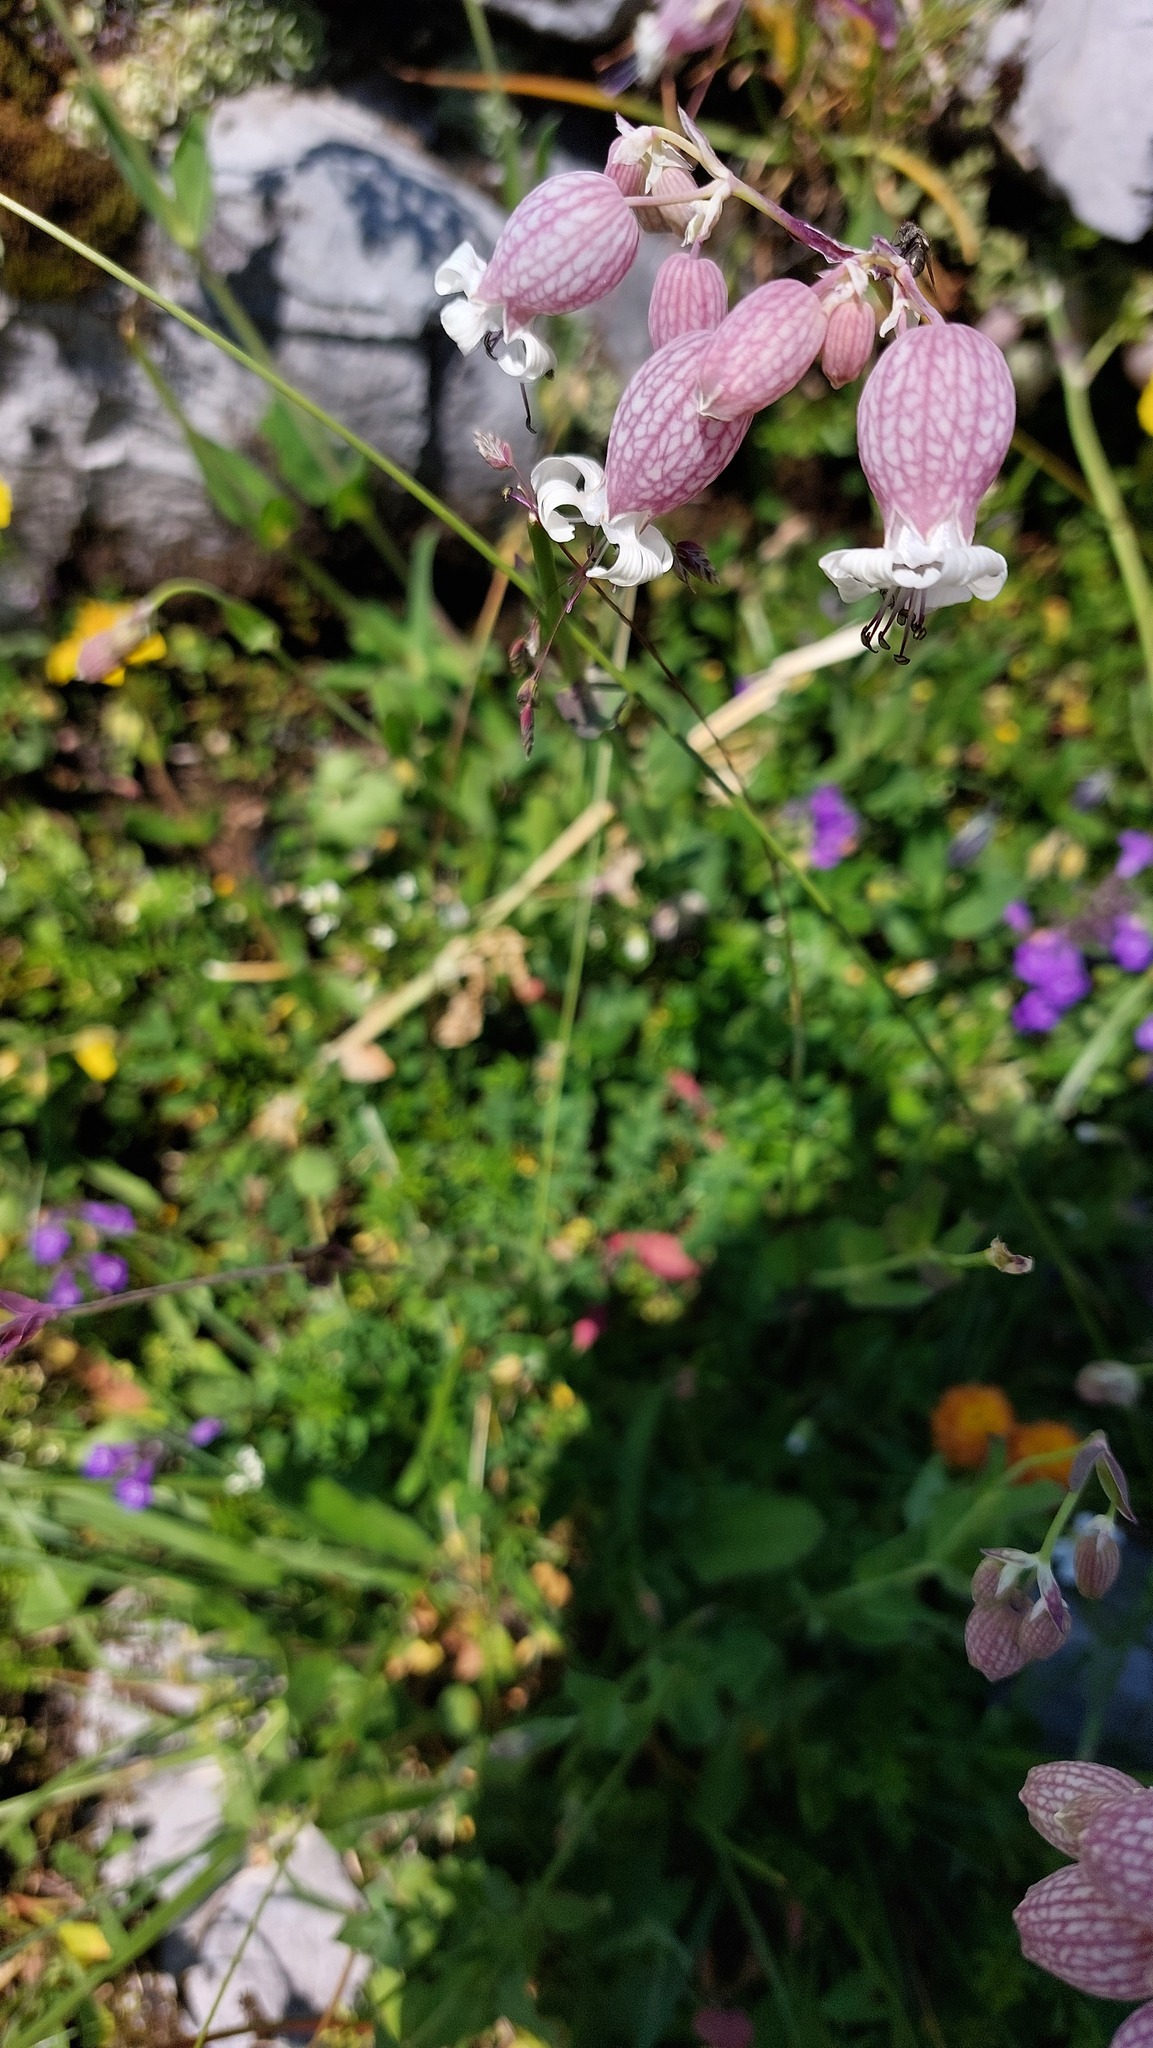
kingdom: Plantae
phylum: Tracheophyta
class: Magnoliopsida
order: Caryophyllales
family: Caryophyllaceae
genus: Silene
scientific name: Silene vulgaris
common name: Bladder campion
